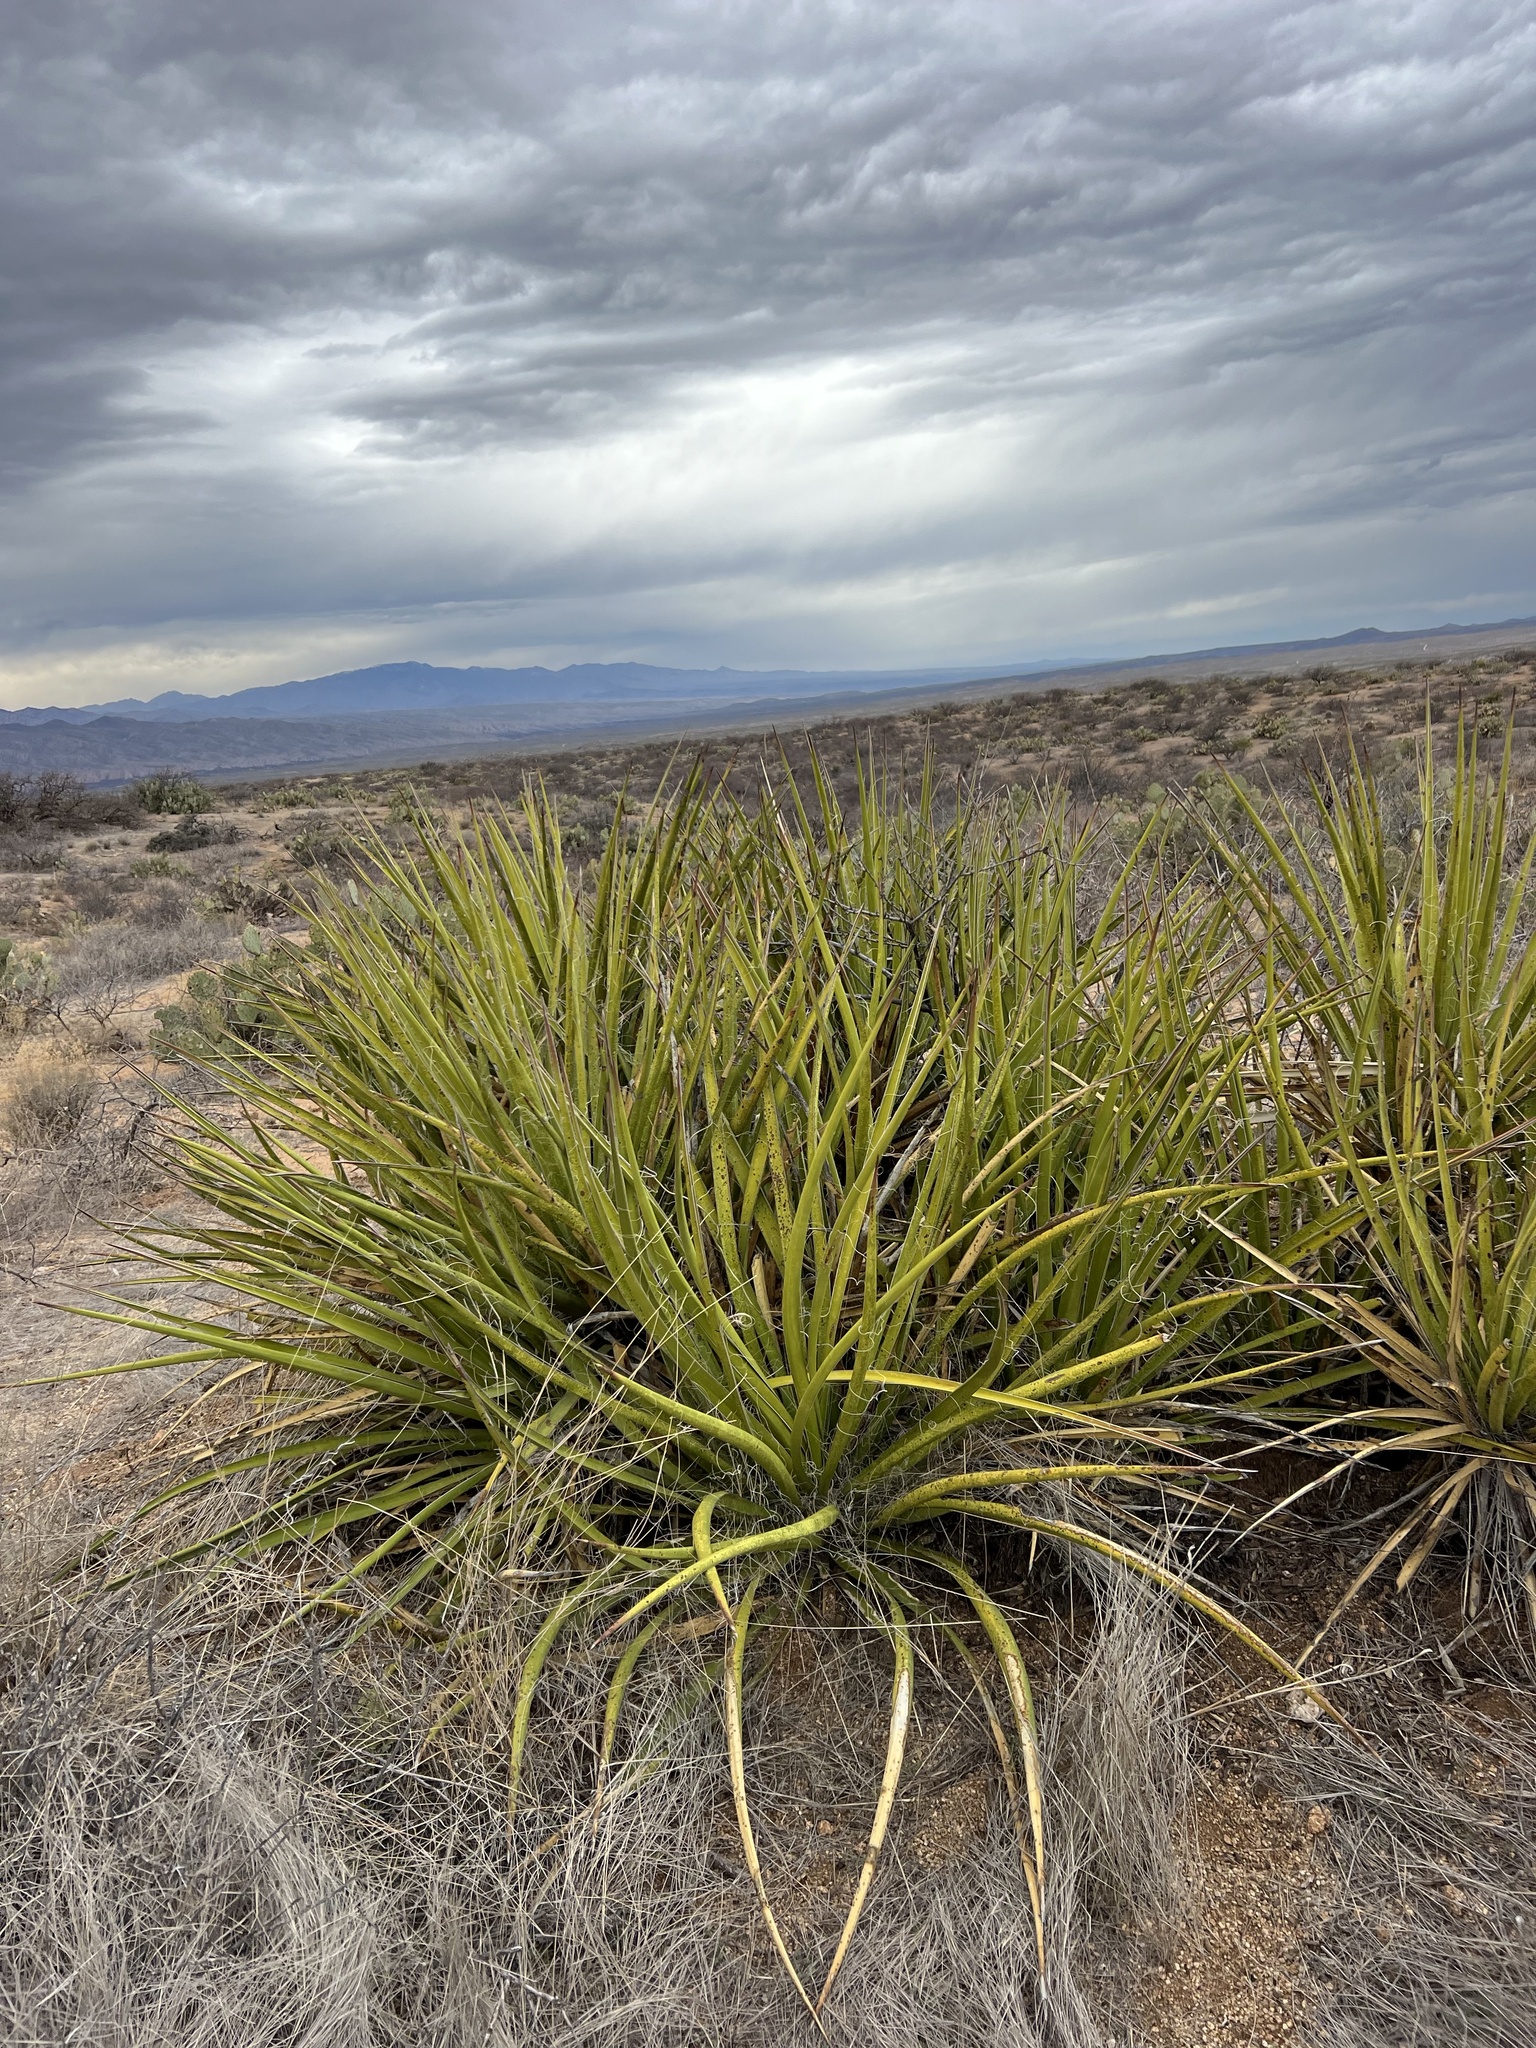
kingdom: Plantae
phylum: Tracheophyta
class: Liliopsida
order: Asparagales
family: Asparagaceae
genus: Yucca
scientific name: Yucca baccata
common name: Banana yucca
